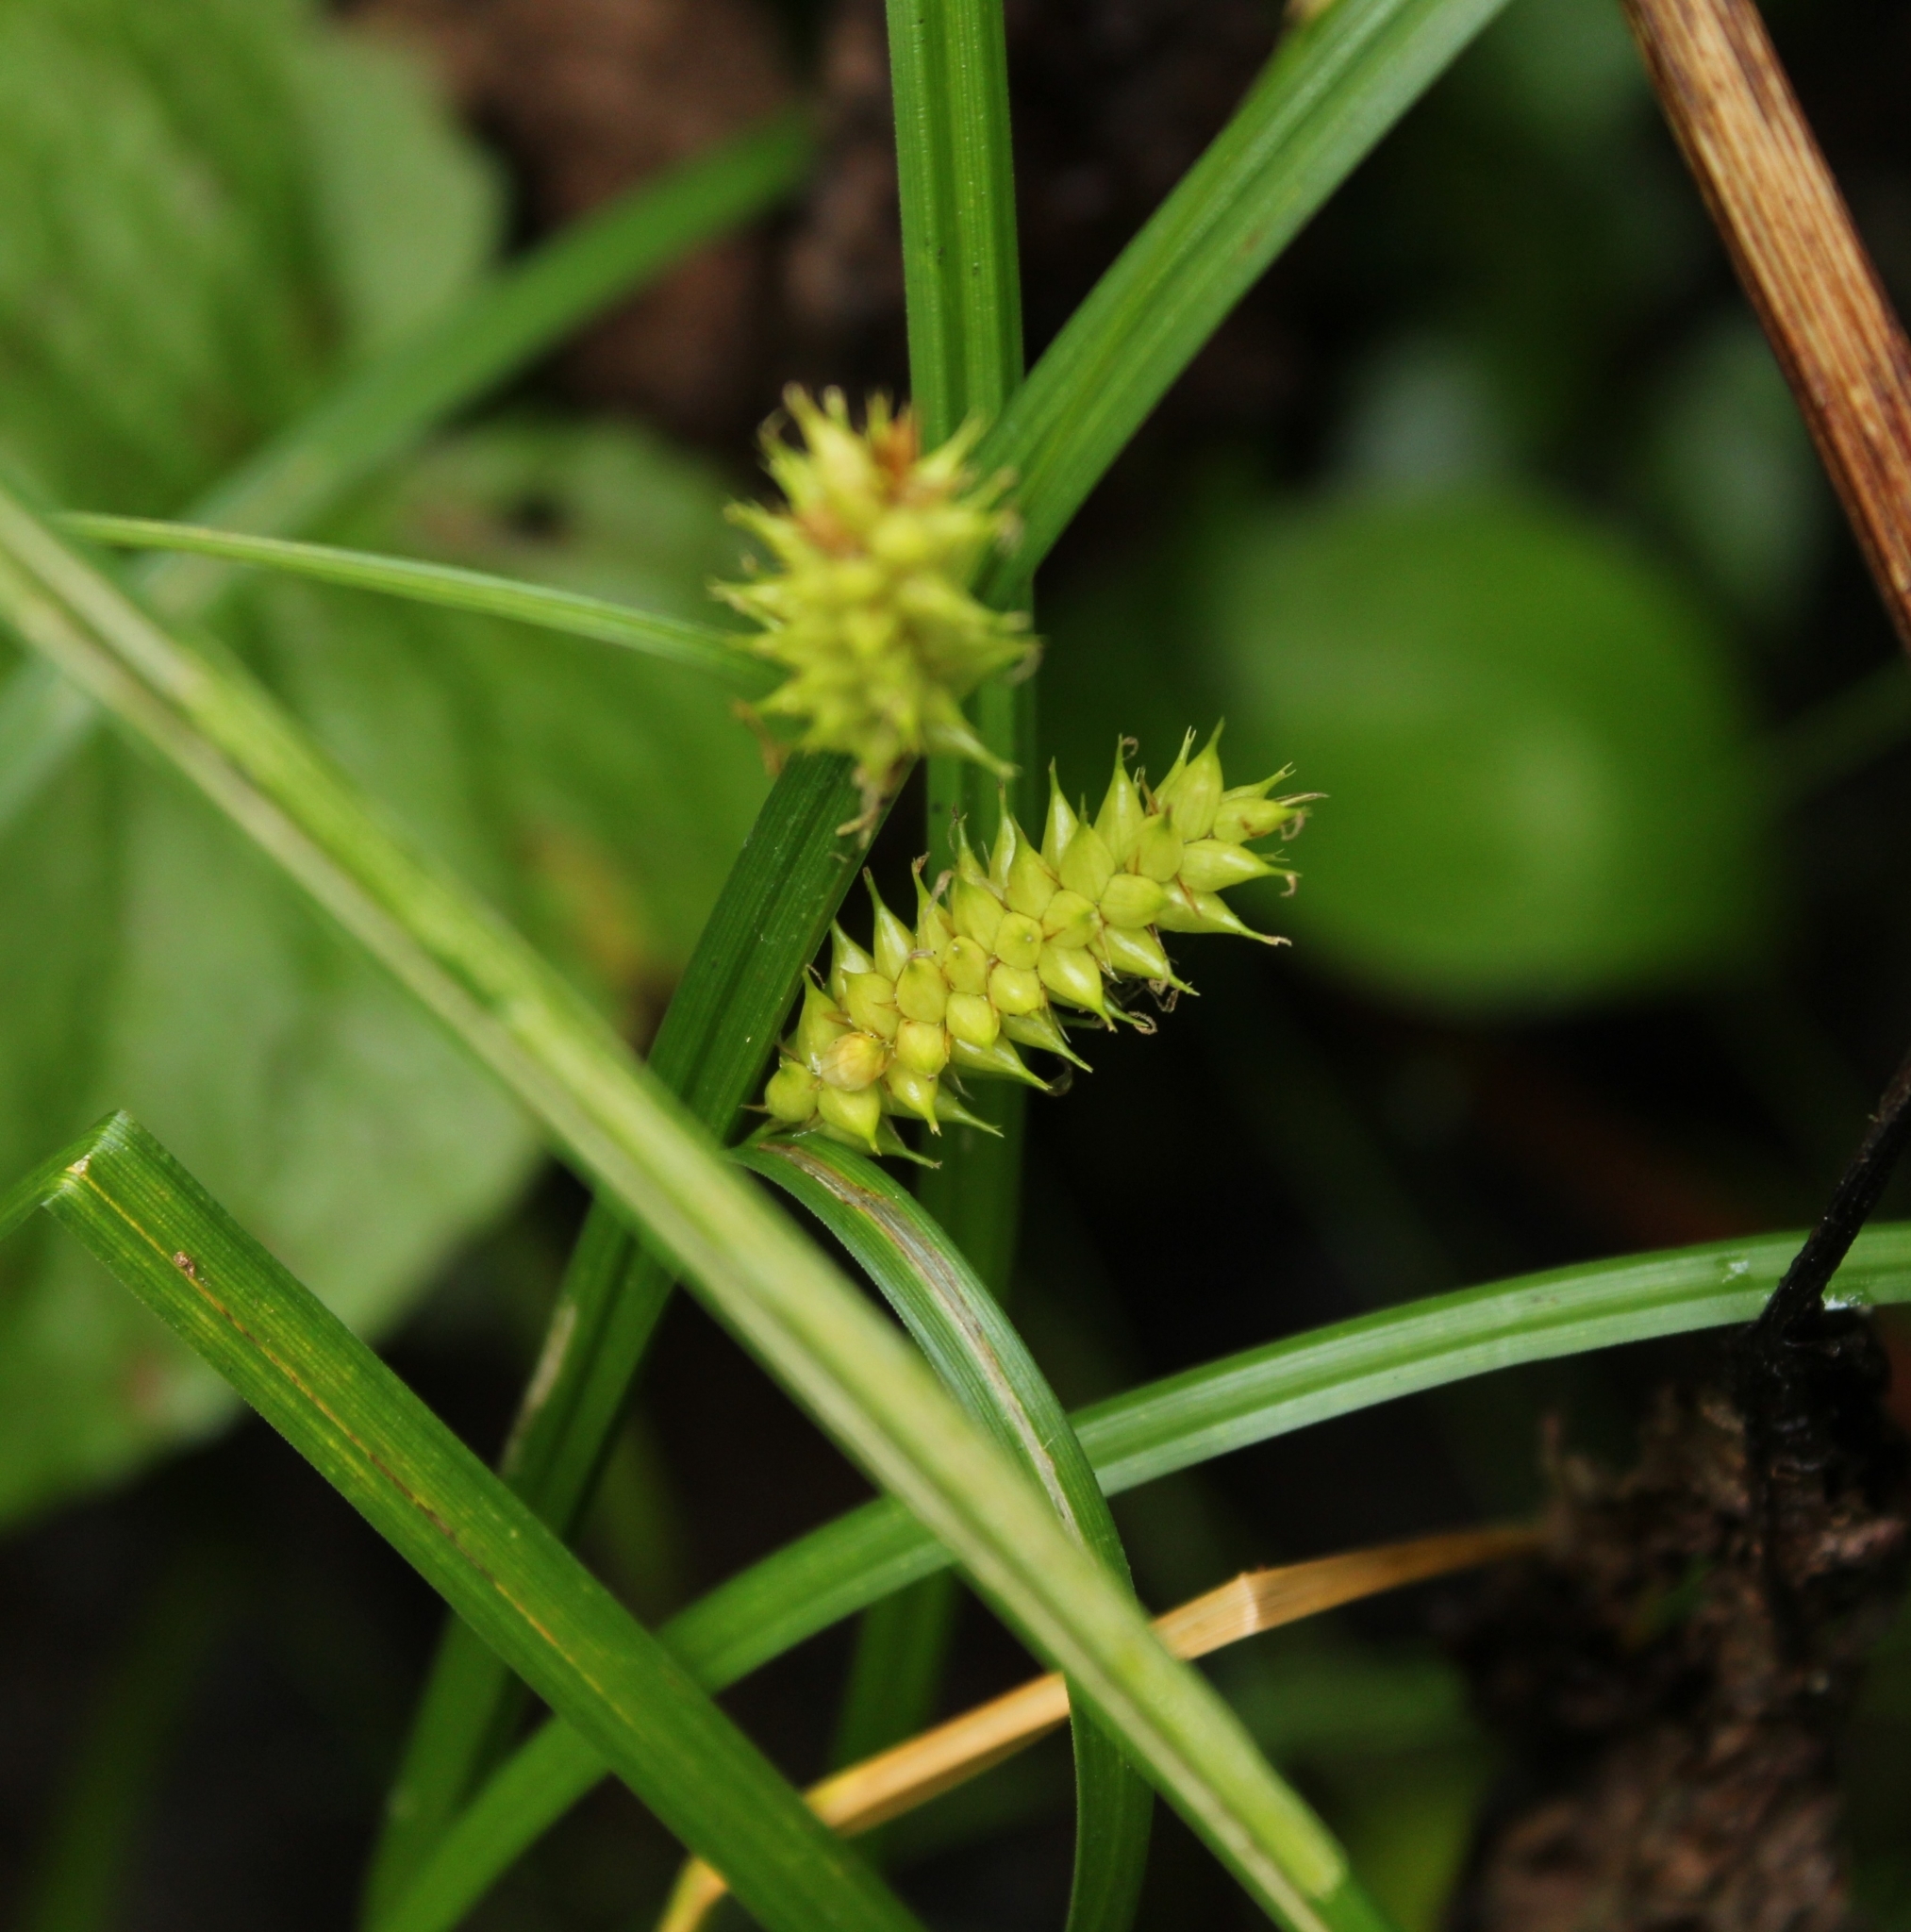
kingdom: Plantae
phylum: Tracheophyta
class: Liliopsida
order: Poales
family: Cyperaceae
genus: Carex
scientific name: Carex vesicaria
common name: Bladder-sedge
